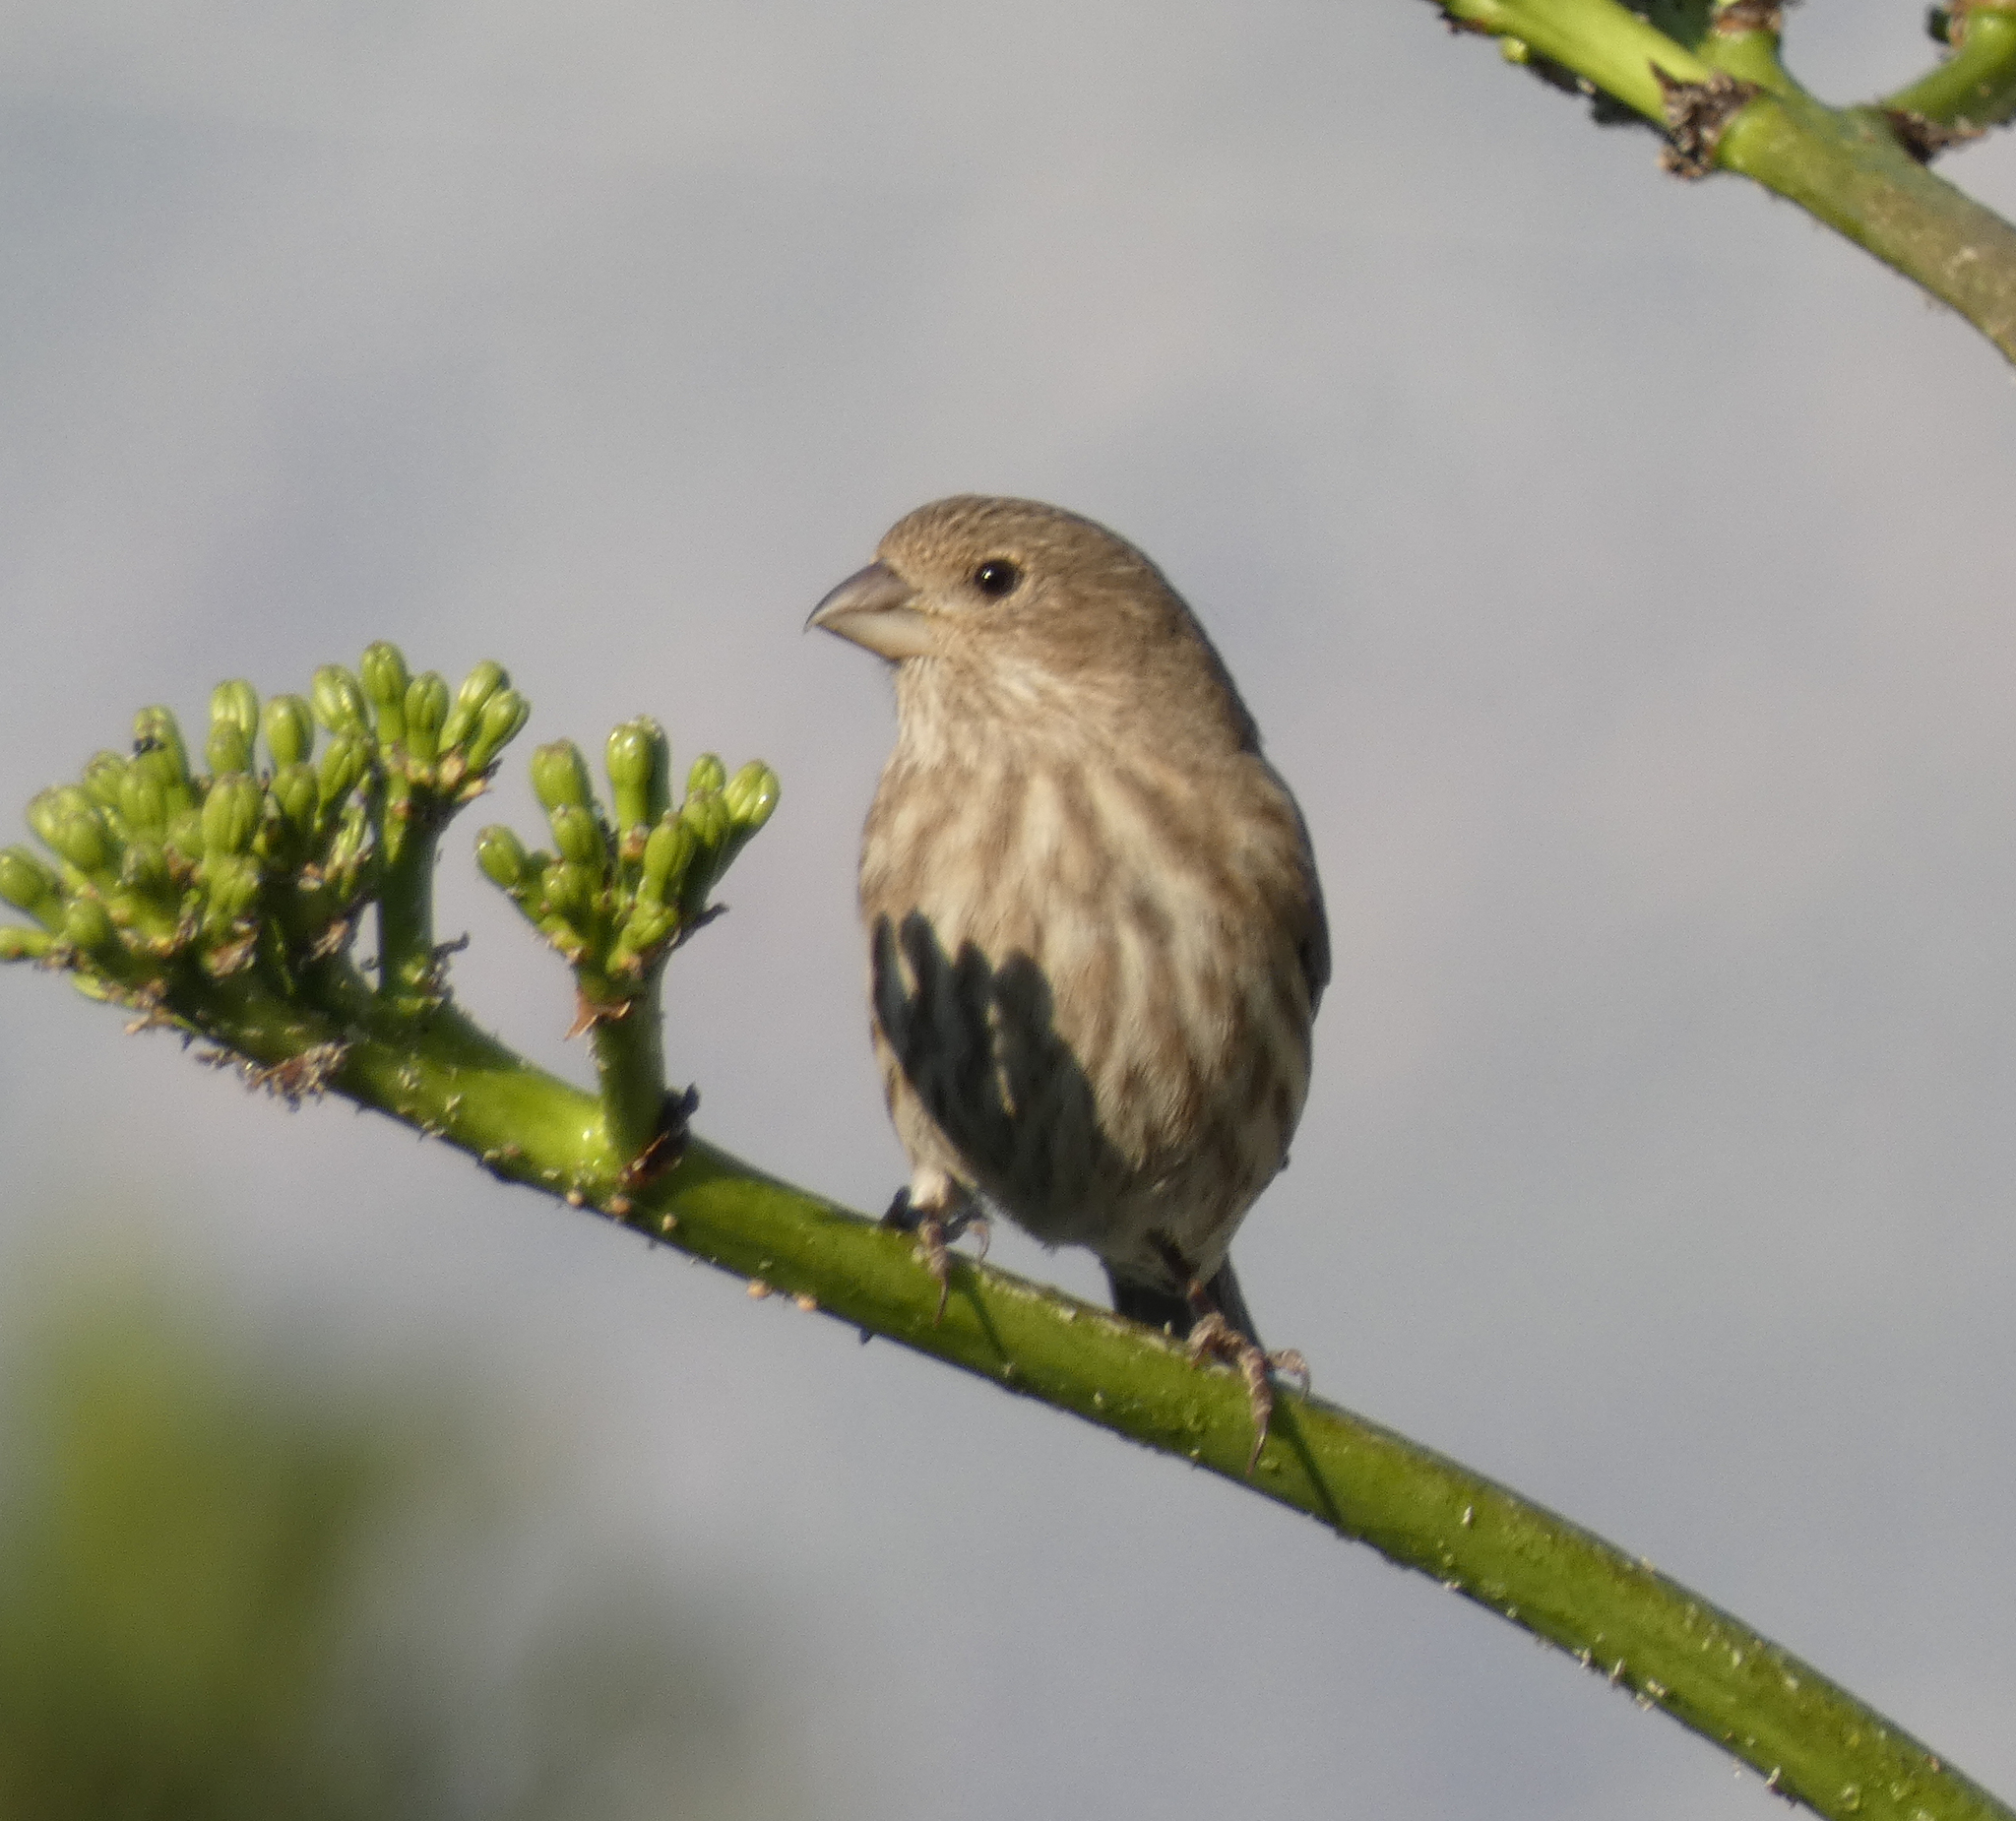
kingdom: Animalia
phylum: Chordata
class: Aves
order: Passeriformes
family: Fringillidae
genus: Haemorhous
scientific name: Haemorhous mexicanus
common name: House finch
